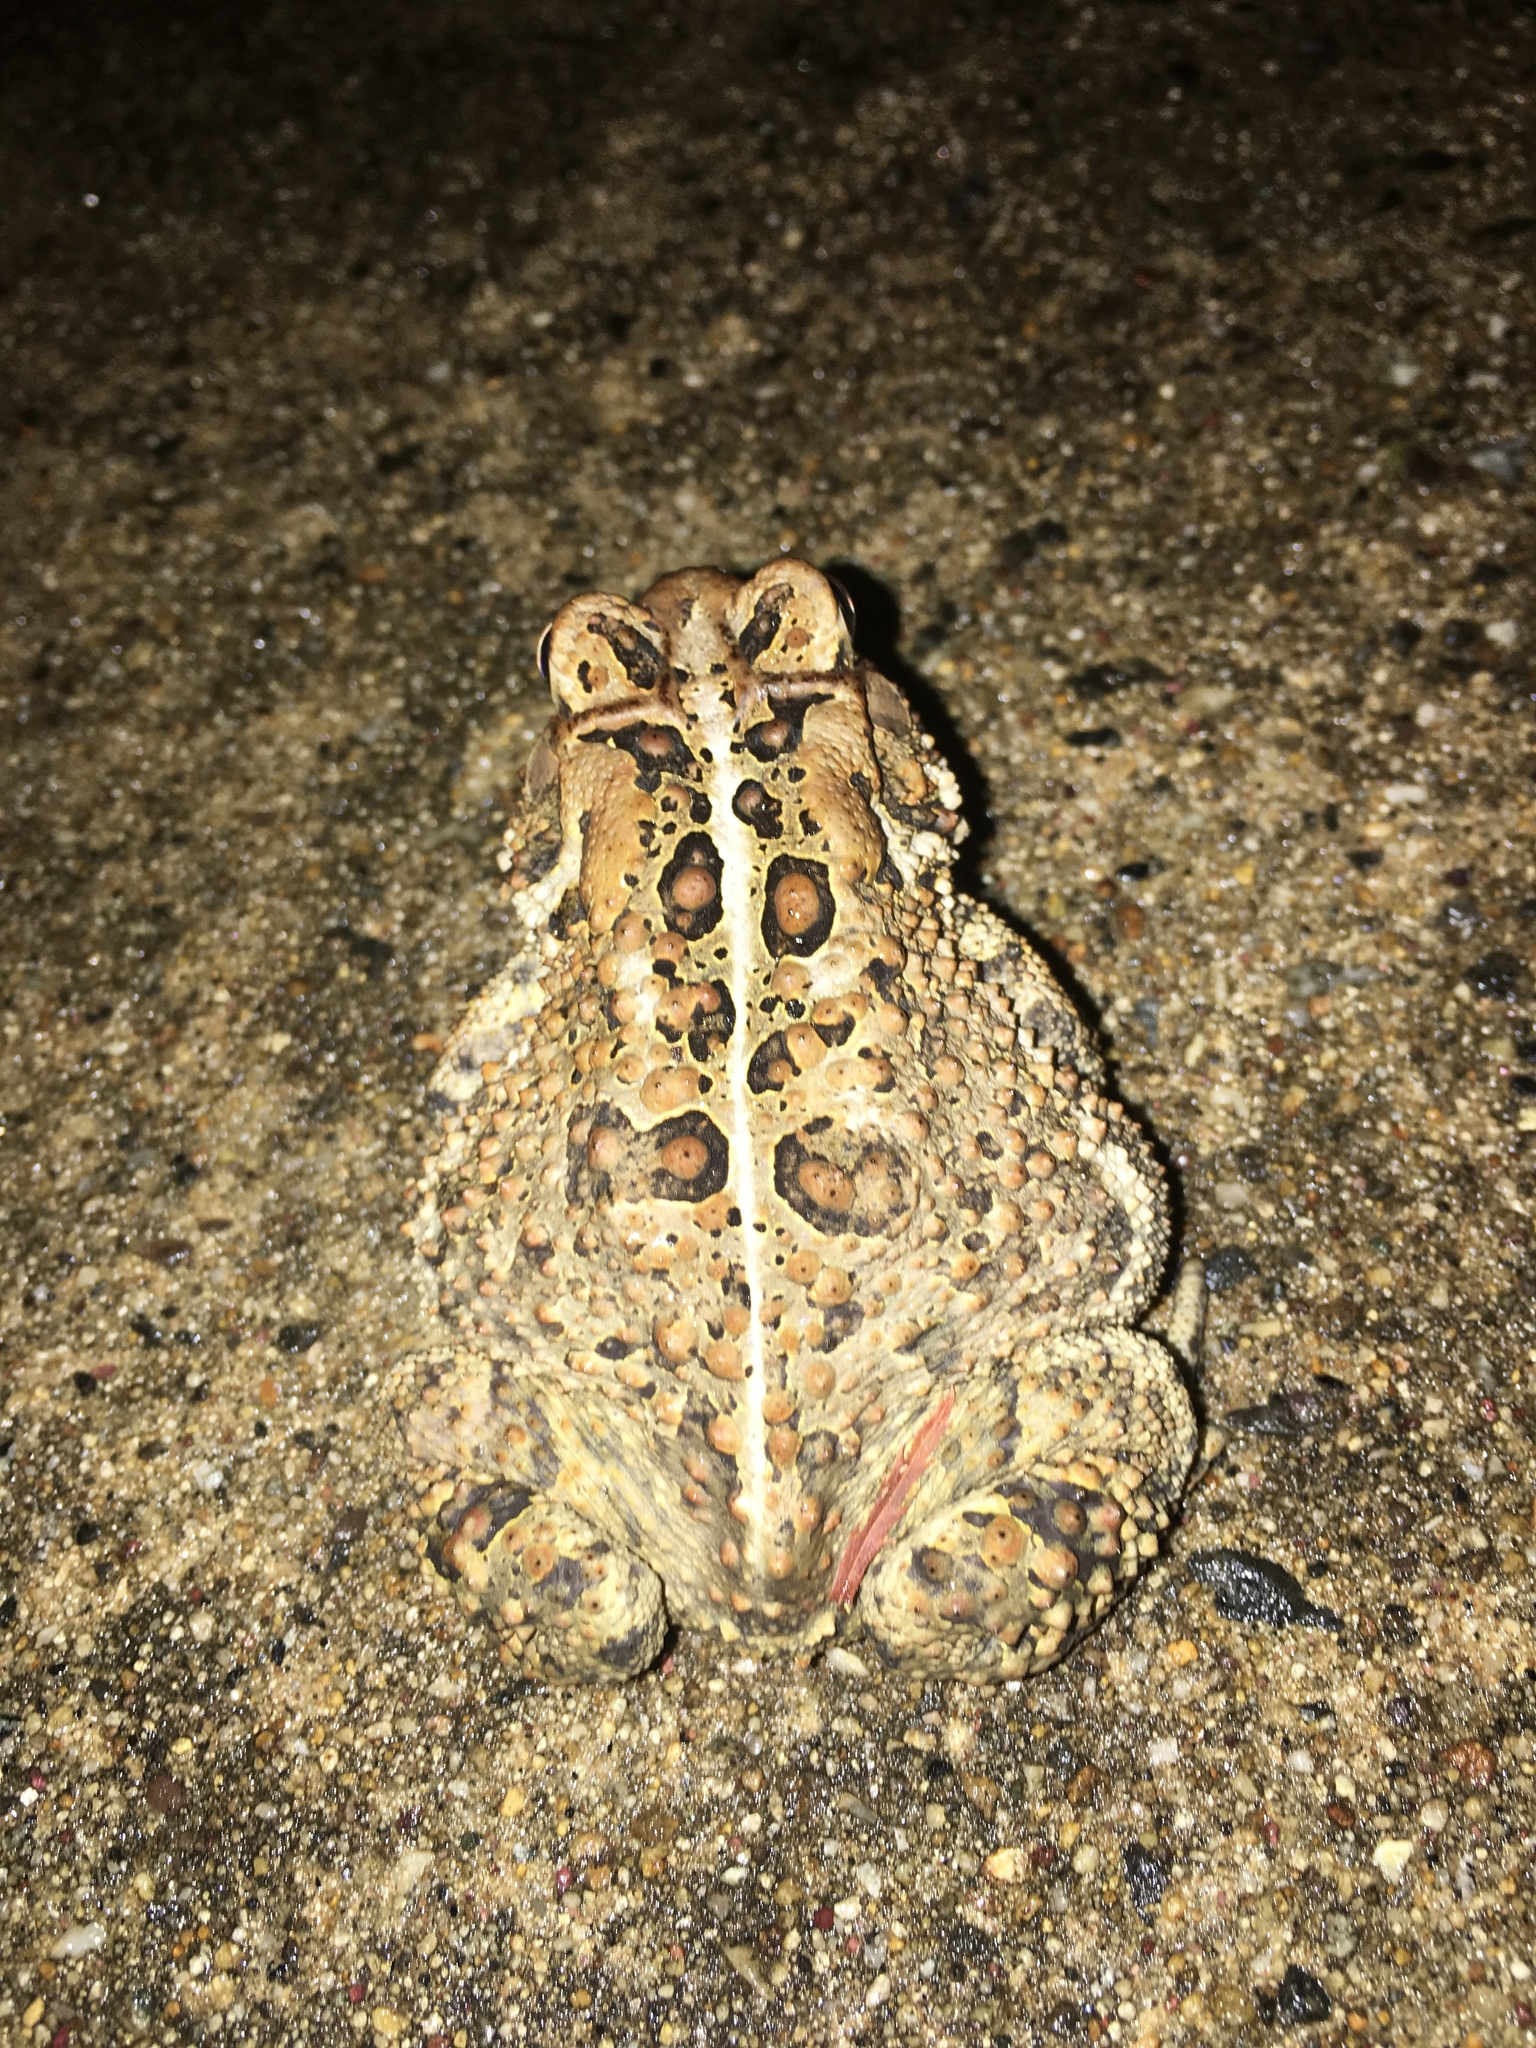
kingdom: Animalia
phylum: Chordata
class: Amphibia
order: Anura
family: Bufonidae
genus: Anaxyrus
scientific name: Anaxyrus americanus
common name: American toad
